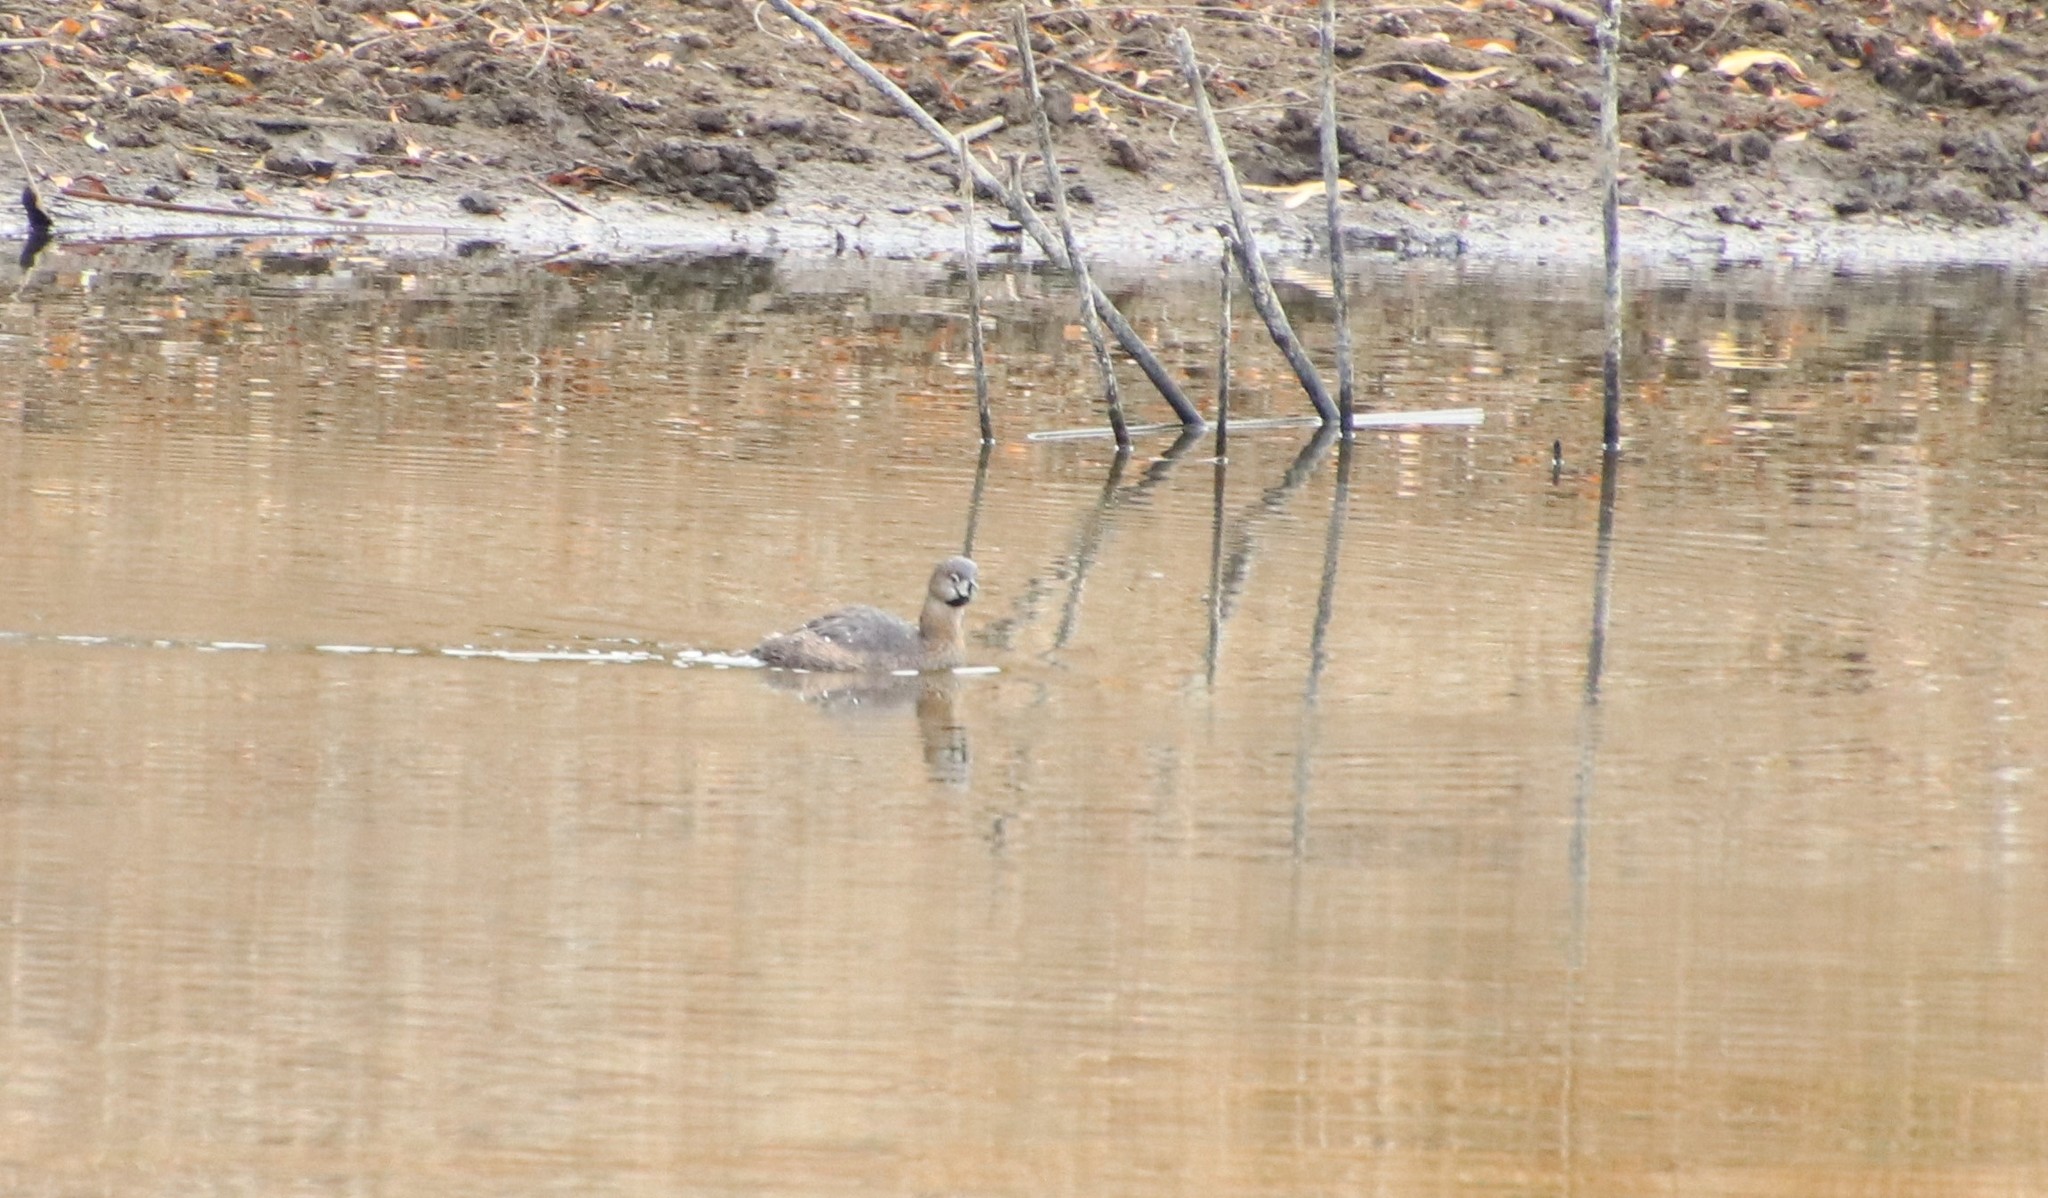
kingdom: Animalia
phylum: Chordata
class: Aves
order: Podicipediformes
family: Podicipedidae
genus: Podilymbus
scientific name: Podilymbus podiceps
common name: Pied-billed grebe
